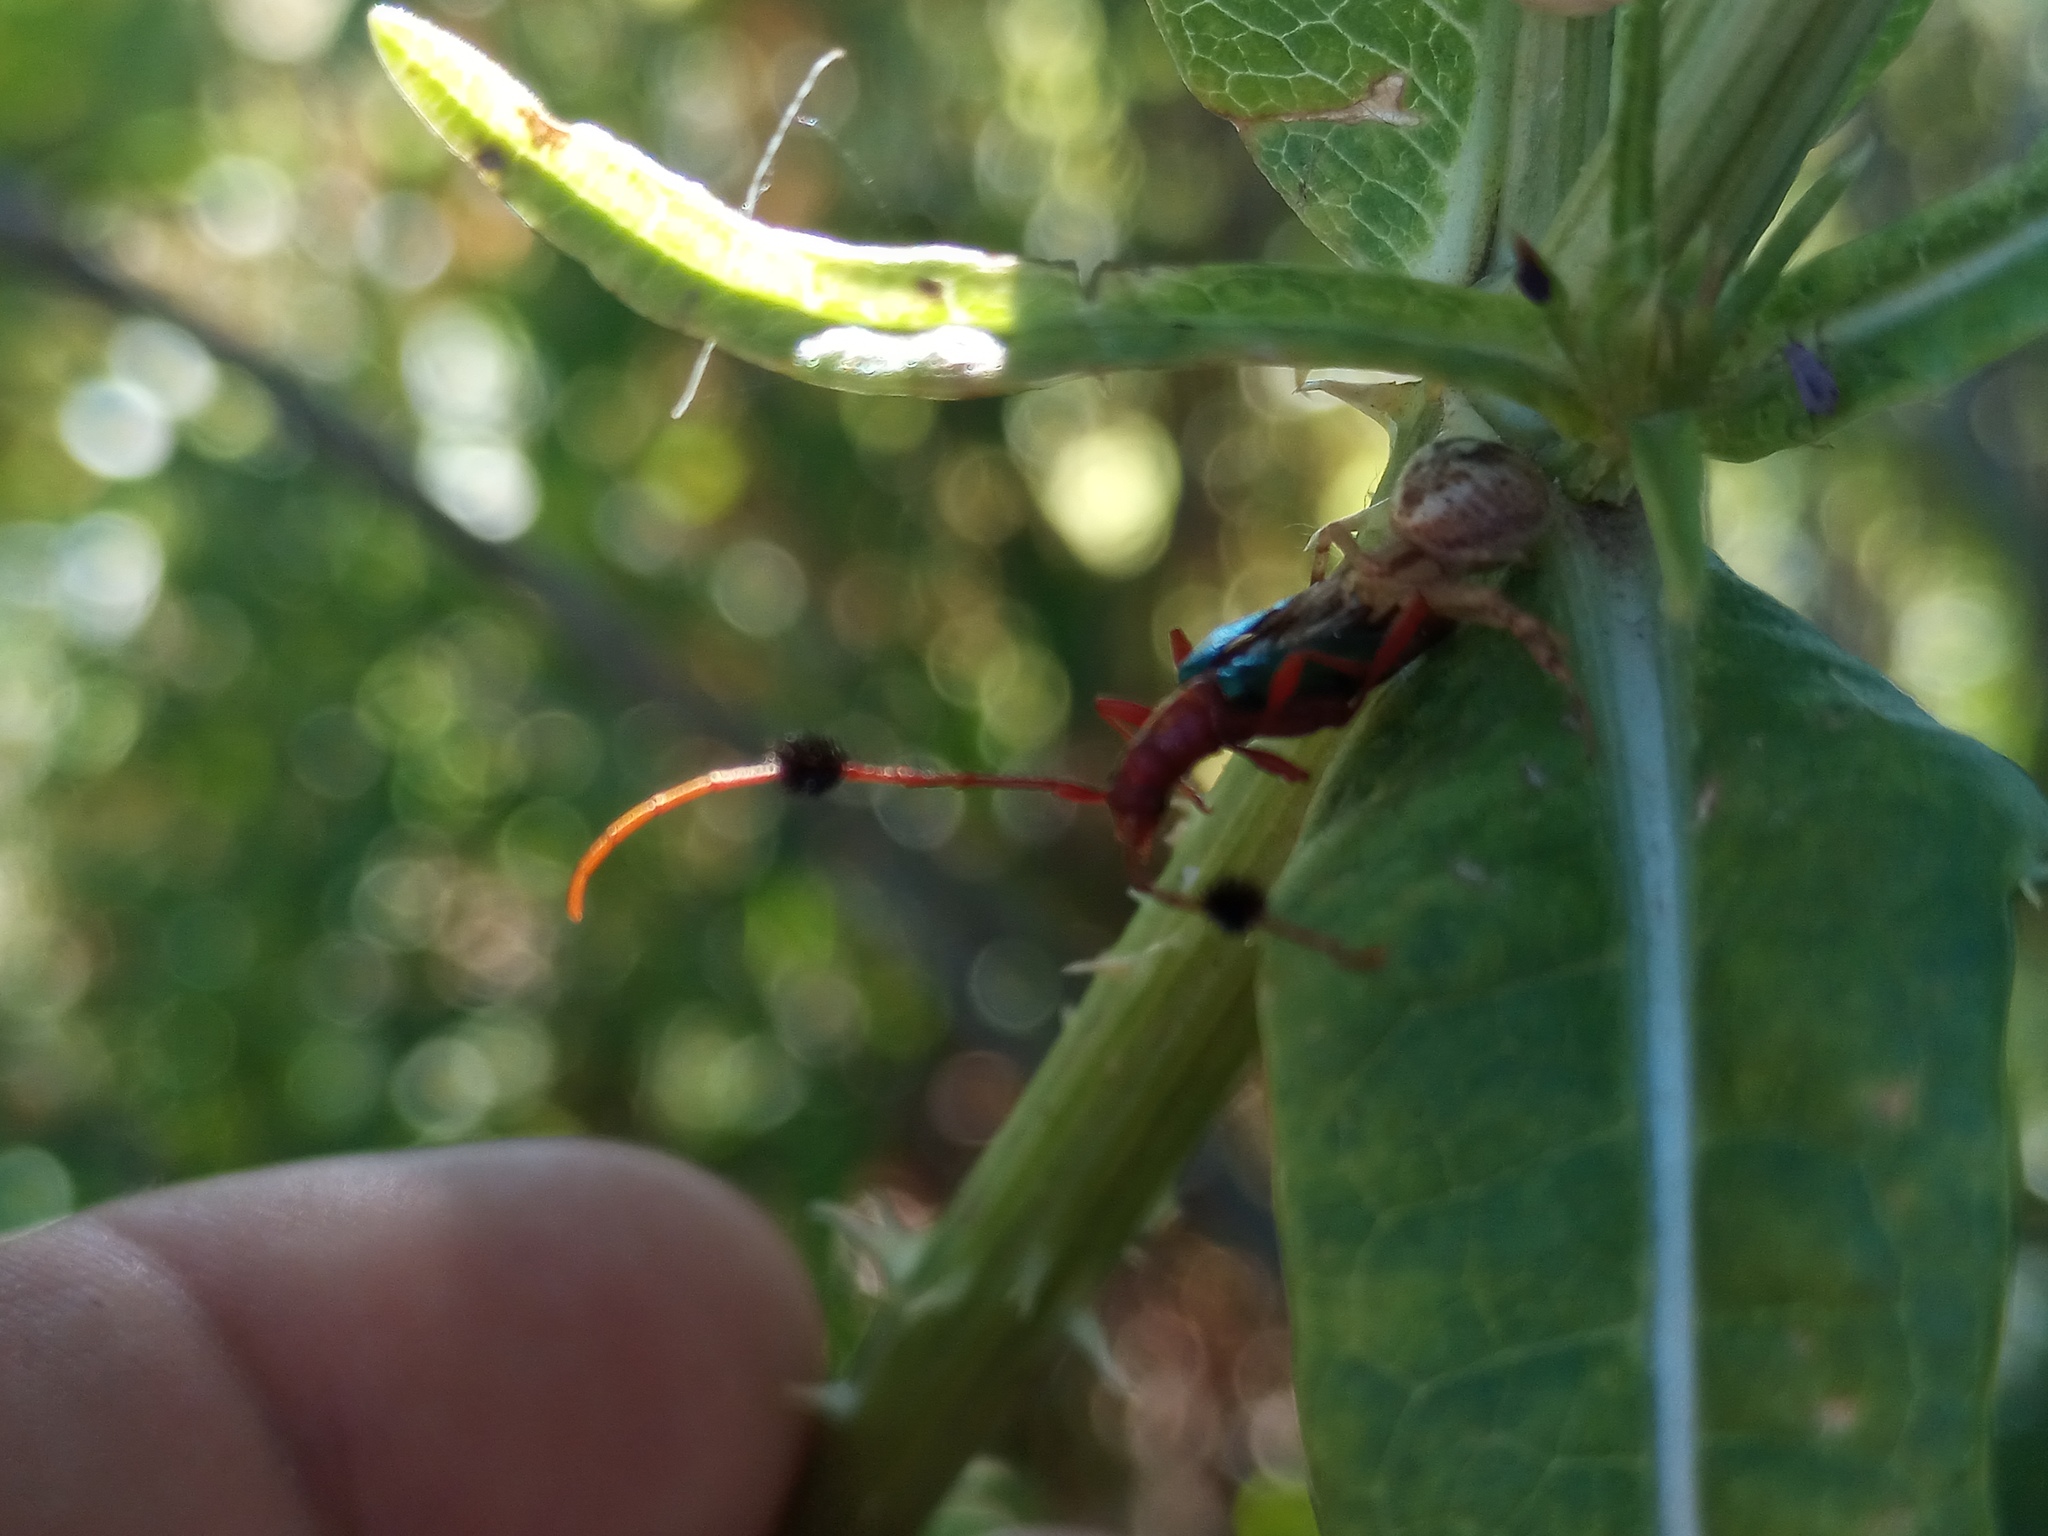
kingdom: Animalia
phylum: Arthropoda
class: Insecta
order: Coleoptera
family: Cerambycidae
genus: Paromoeocerus
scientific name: Paromoeocerus barbicornis
